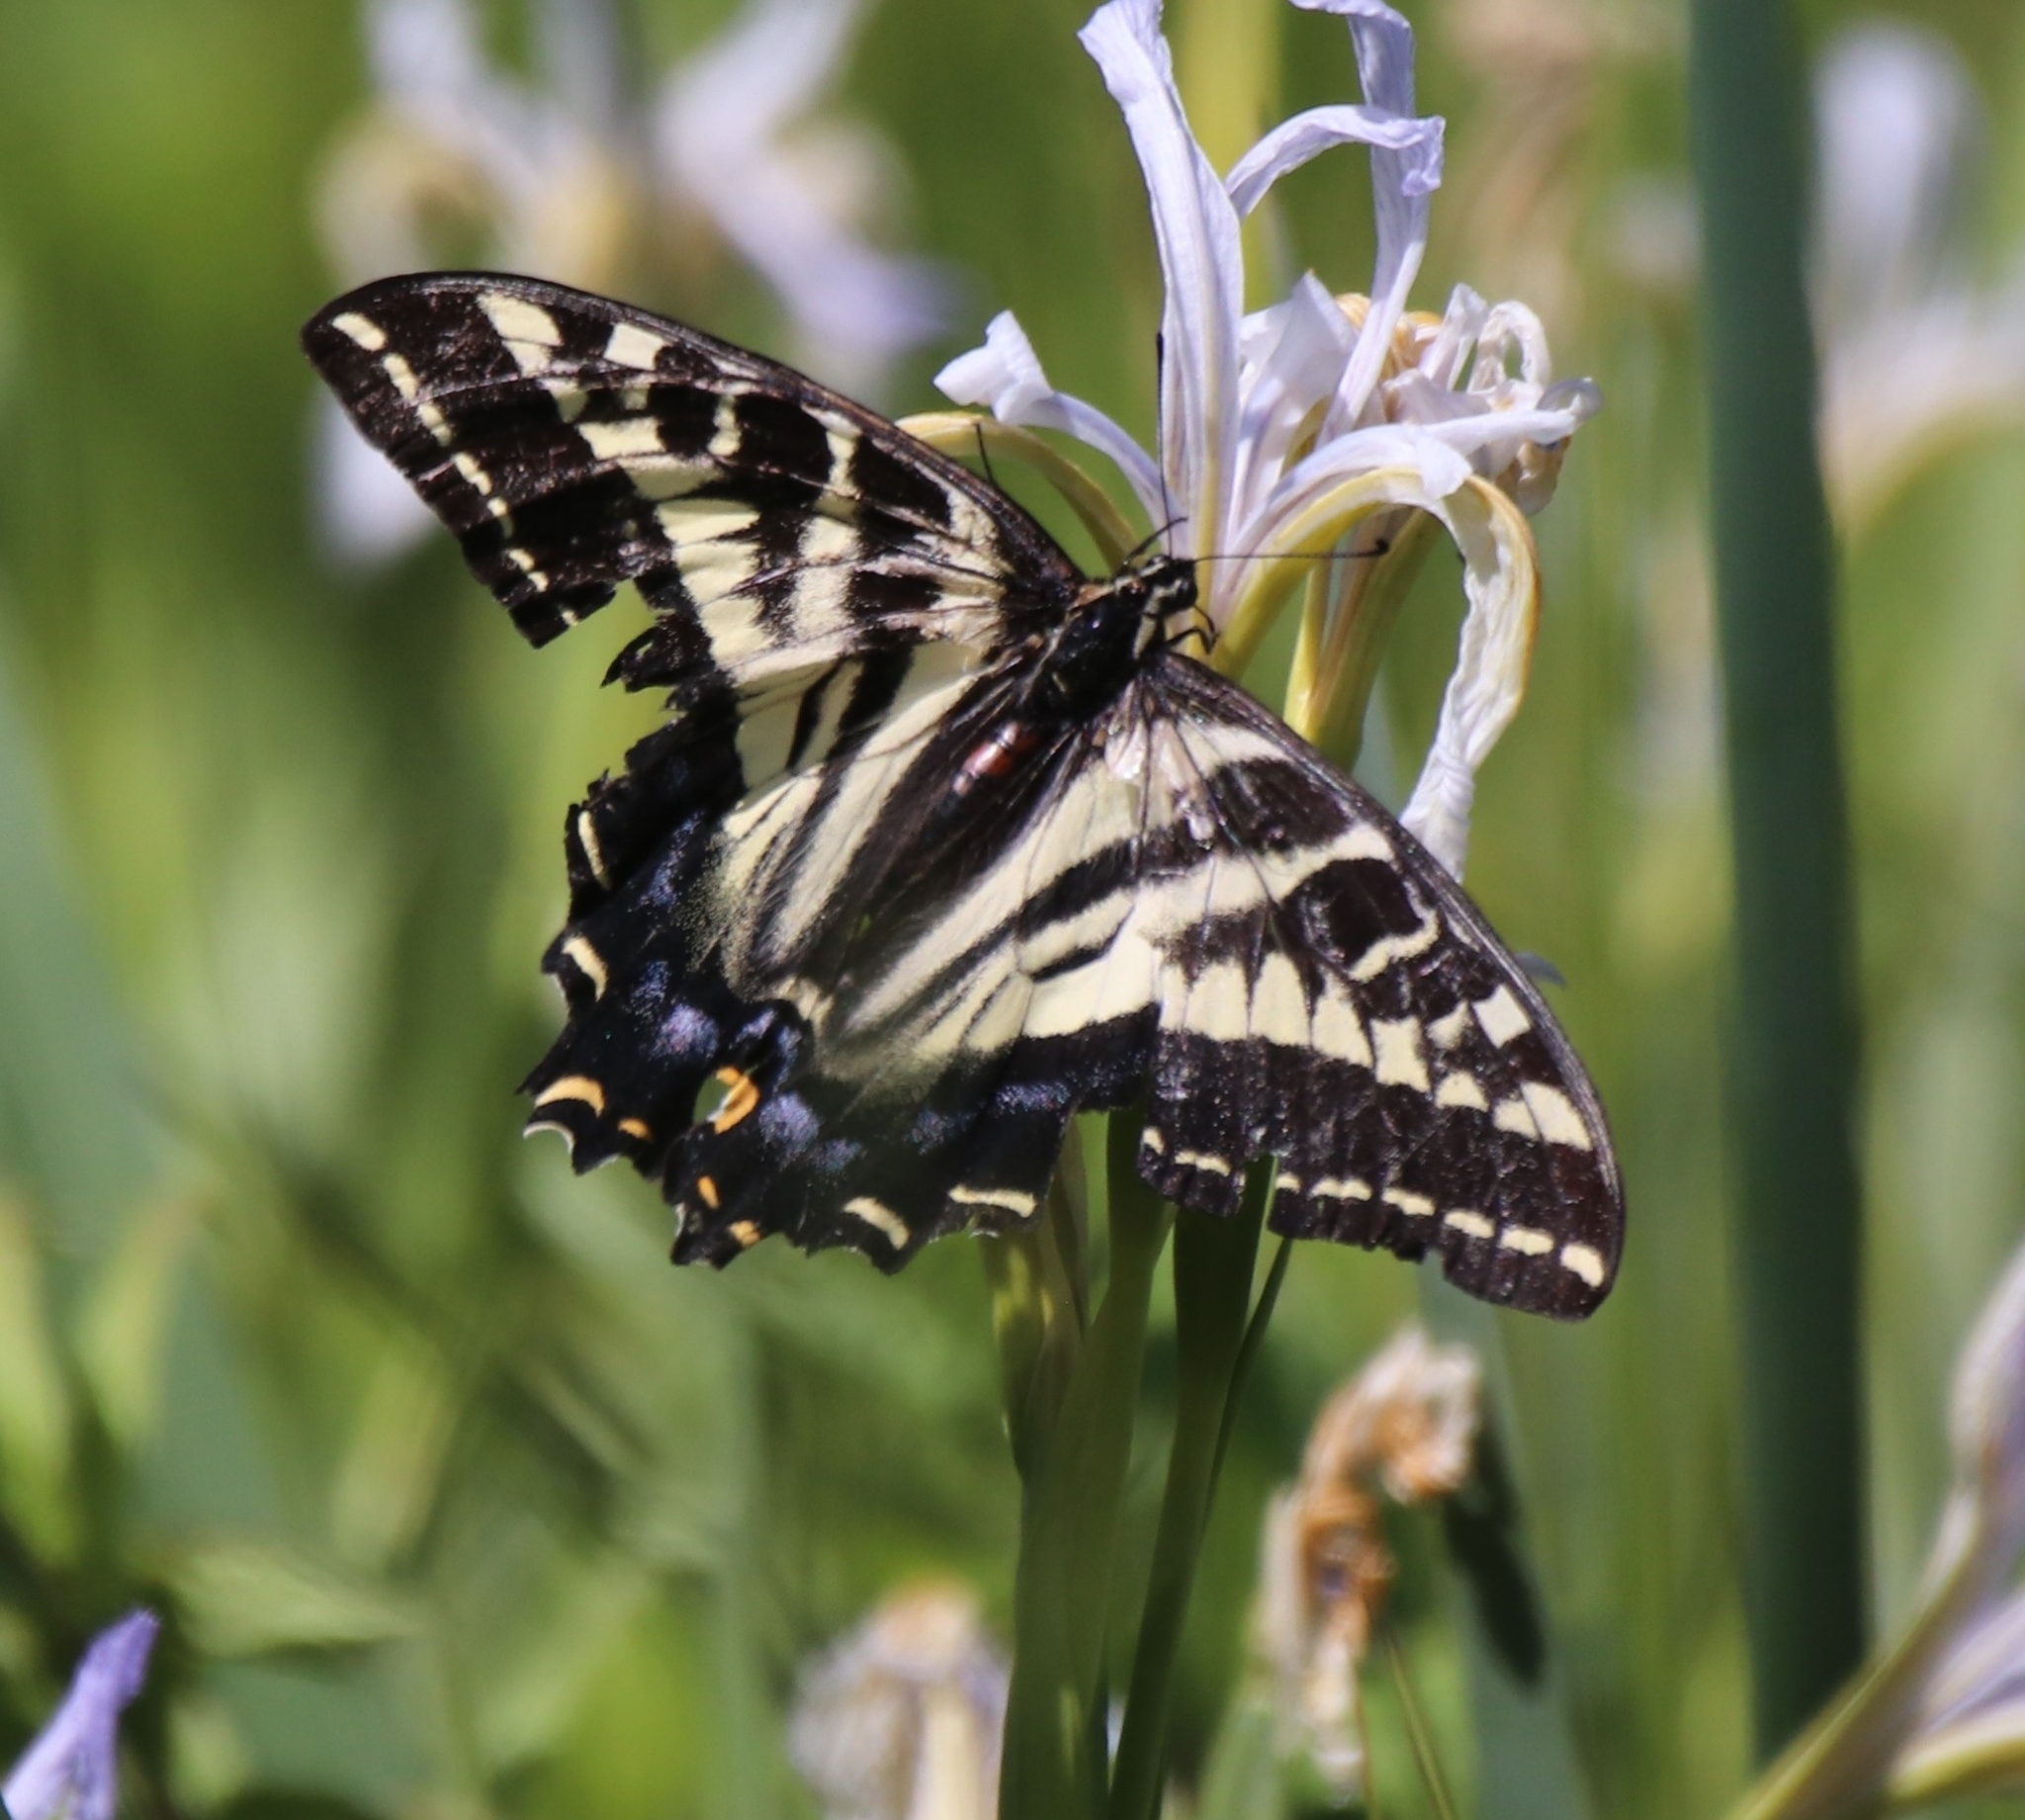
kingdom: Animalia
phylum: Arthropoda
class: Insecta
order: Lepidoptera
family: Papilionidae
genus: Papilio
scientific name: Papilio eurymedon
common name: Pale tiger swallowtail
